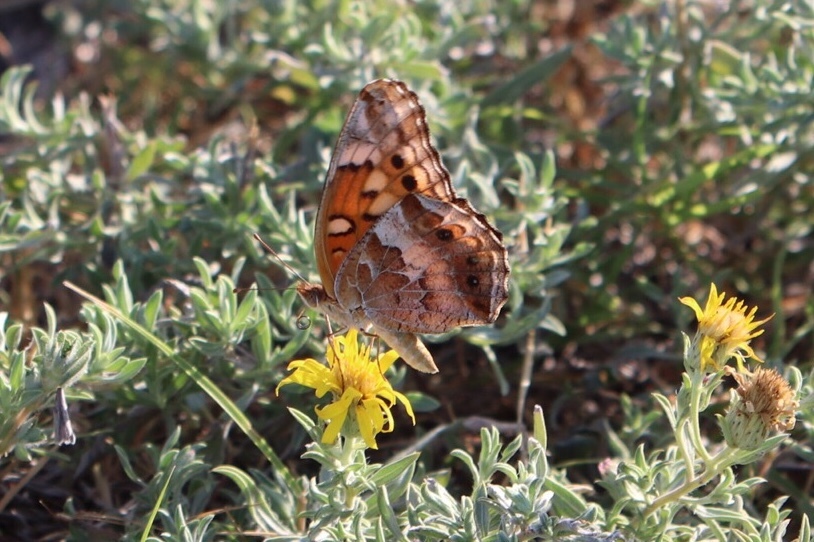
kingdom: Animalia
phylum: Arthropoda
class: Insecta
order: Lepidoptera
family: Nymphalidae
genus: Euptoieta
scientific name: Euptoieta claudia
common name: Variegated fritillary
